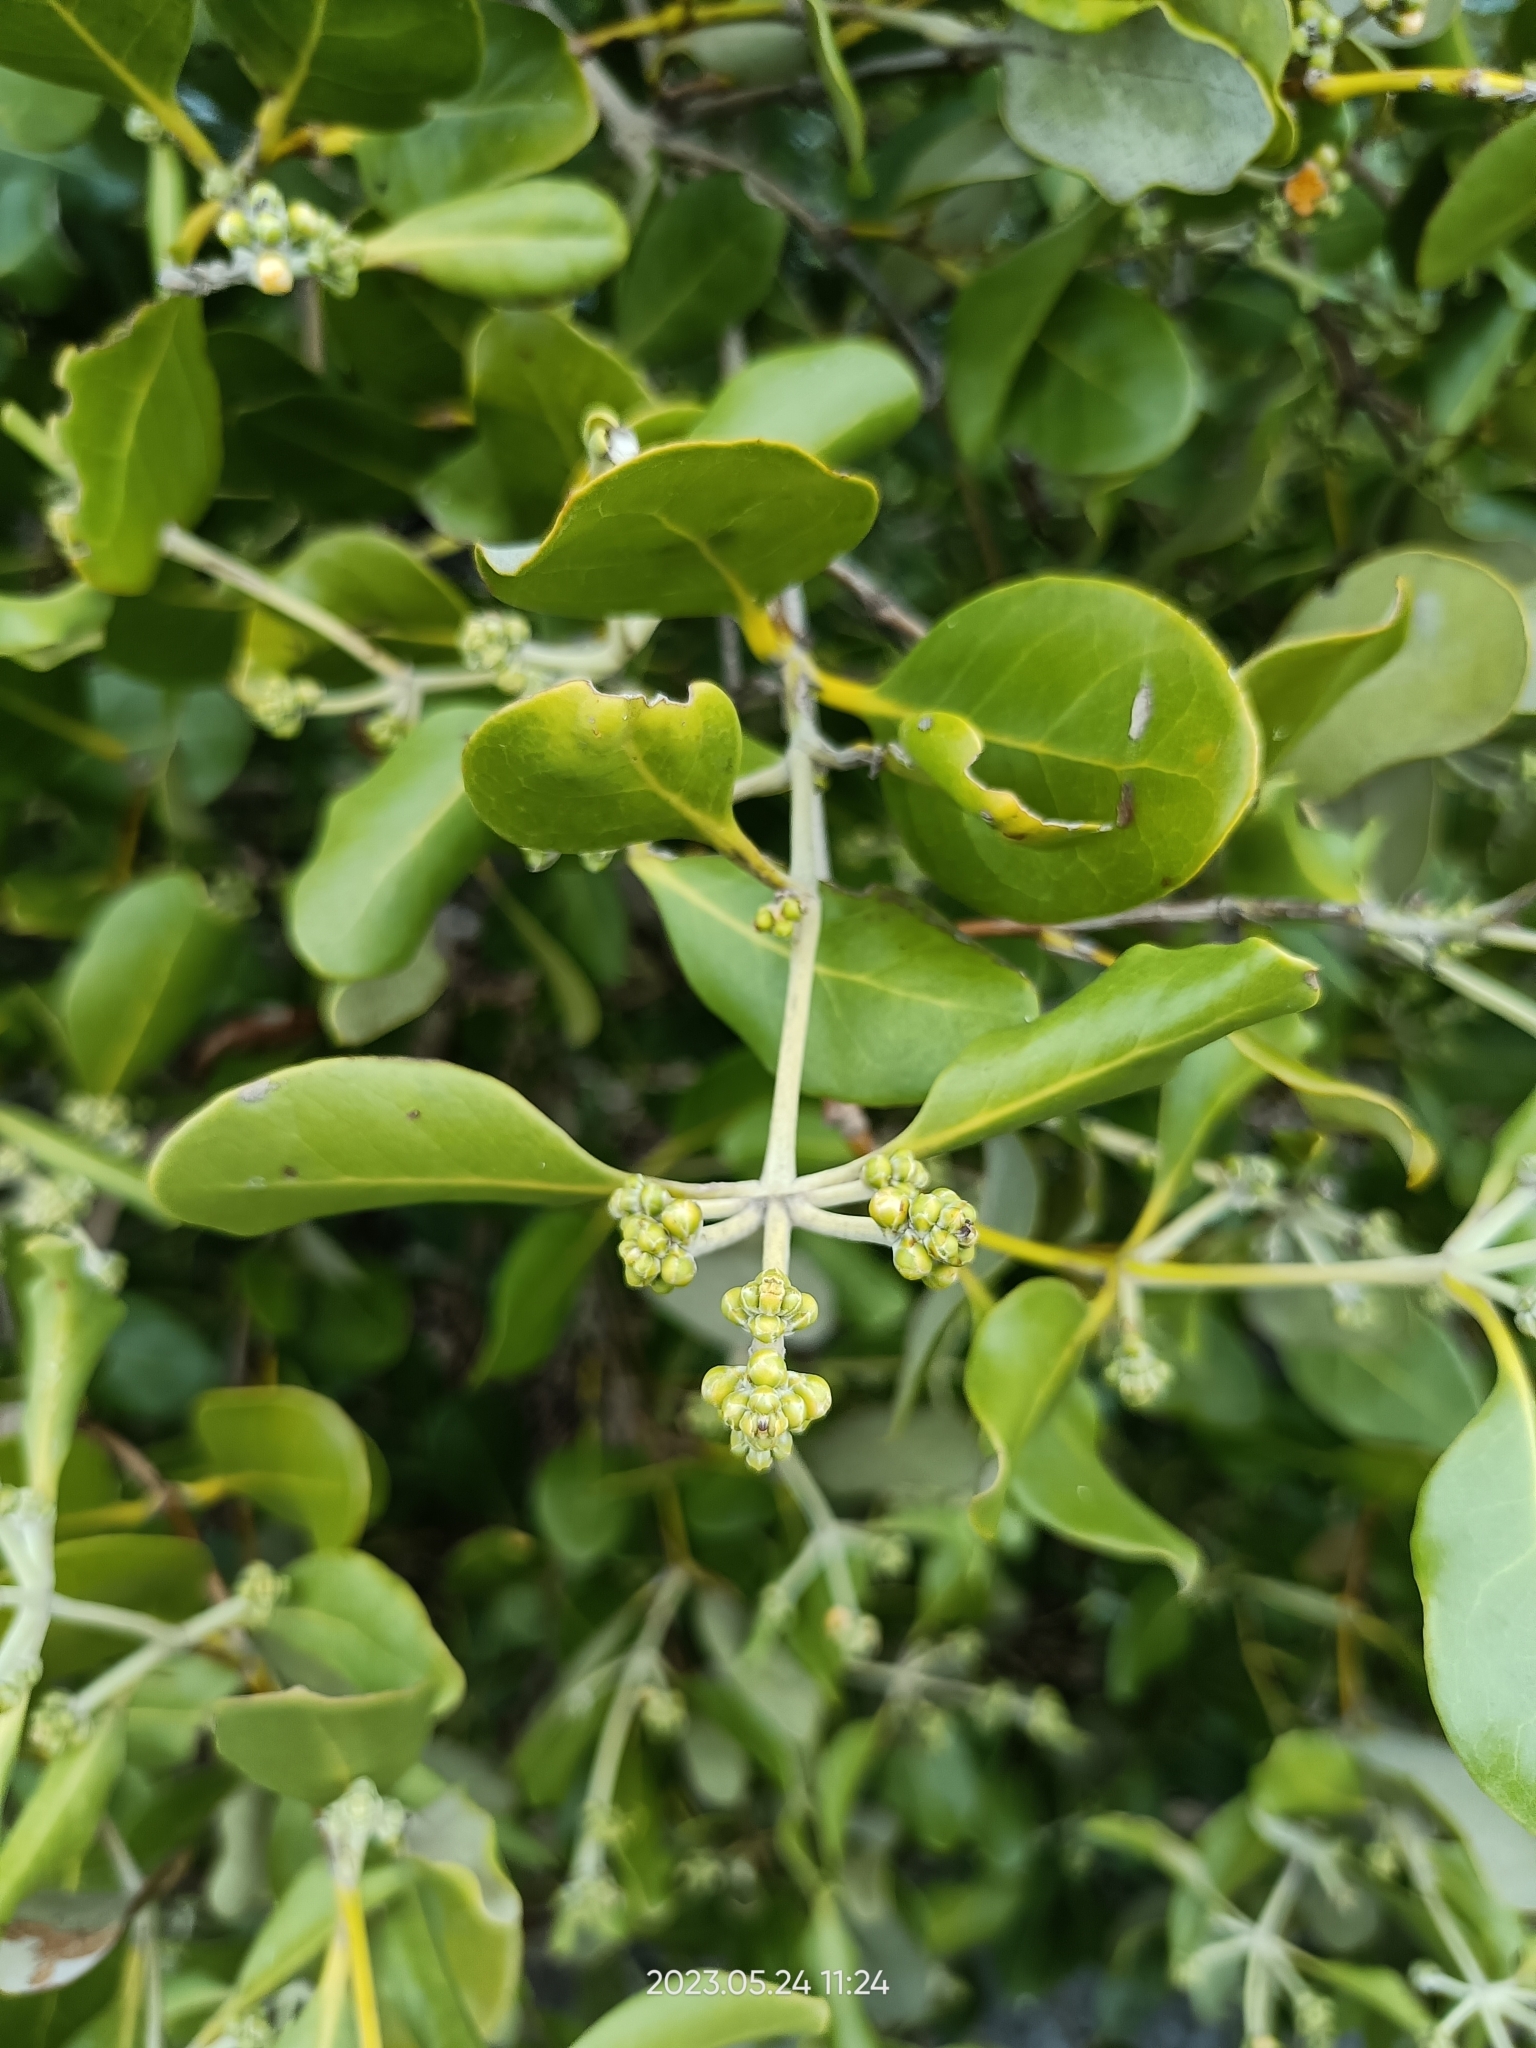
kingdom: Plantae
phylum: Tracheophyta
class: Magnoliopsida
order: Lamiales
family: Acanthaceae
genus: Avicennia
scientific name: Avicennia marina
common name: Gray mangrove
